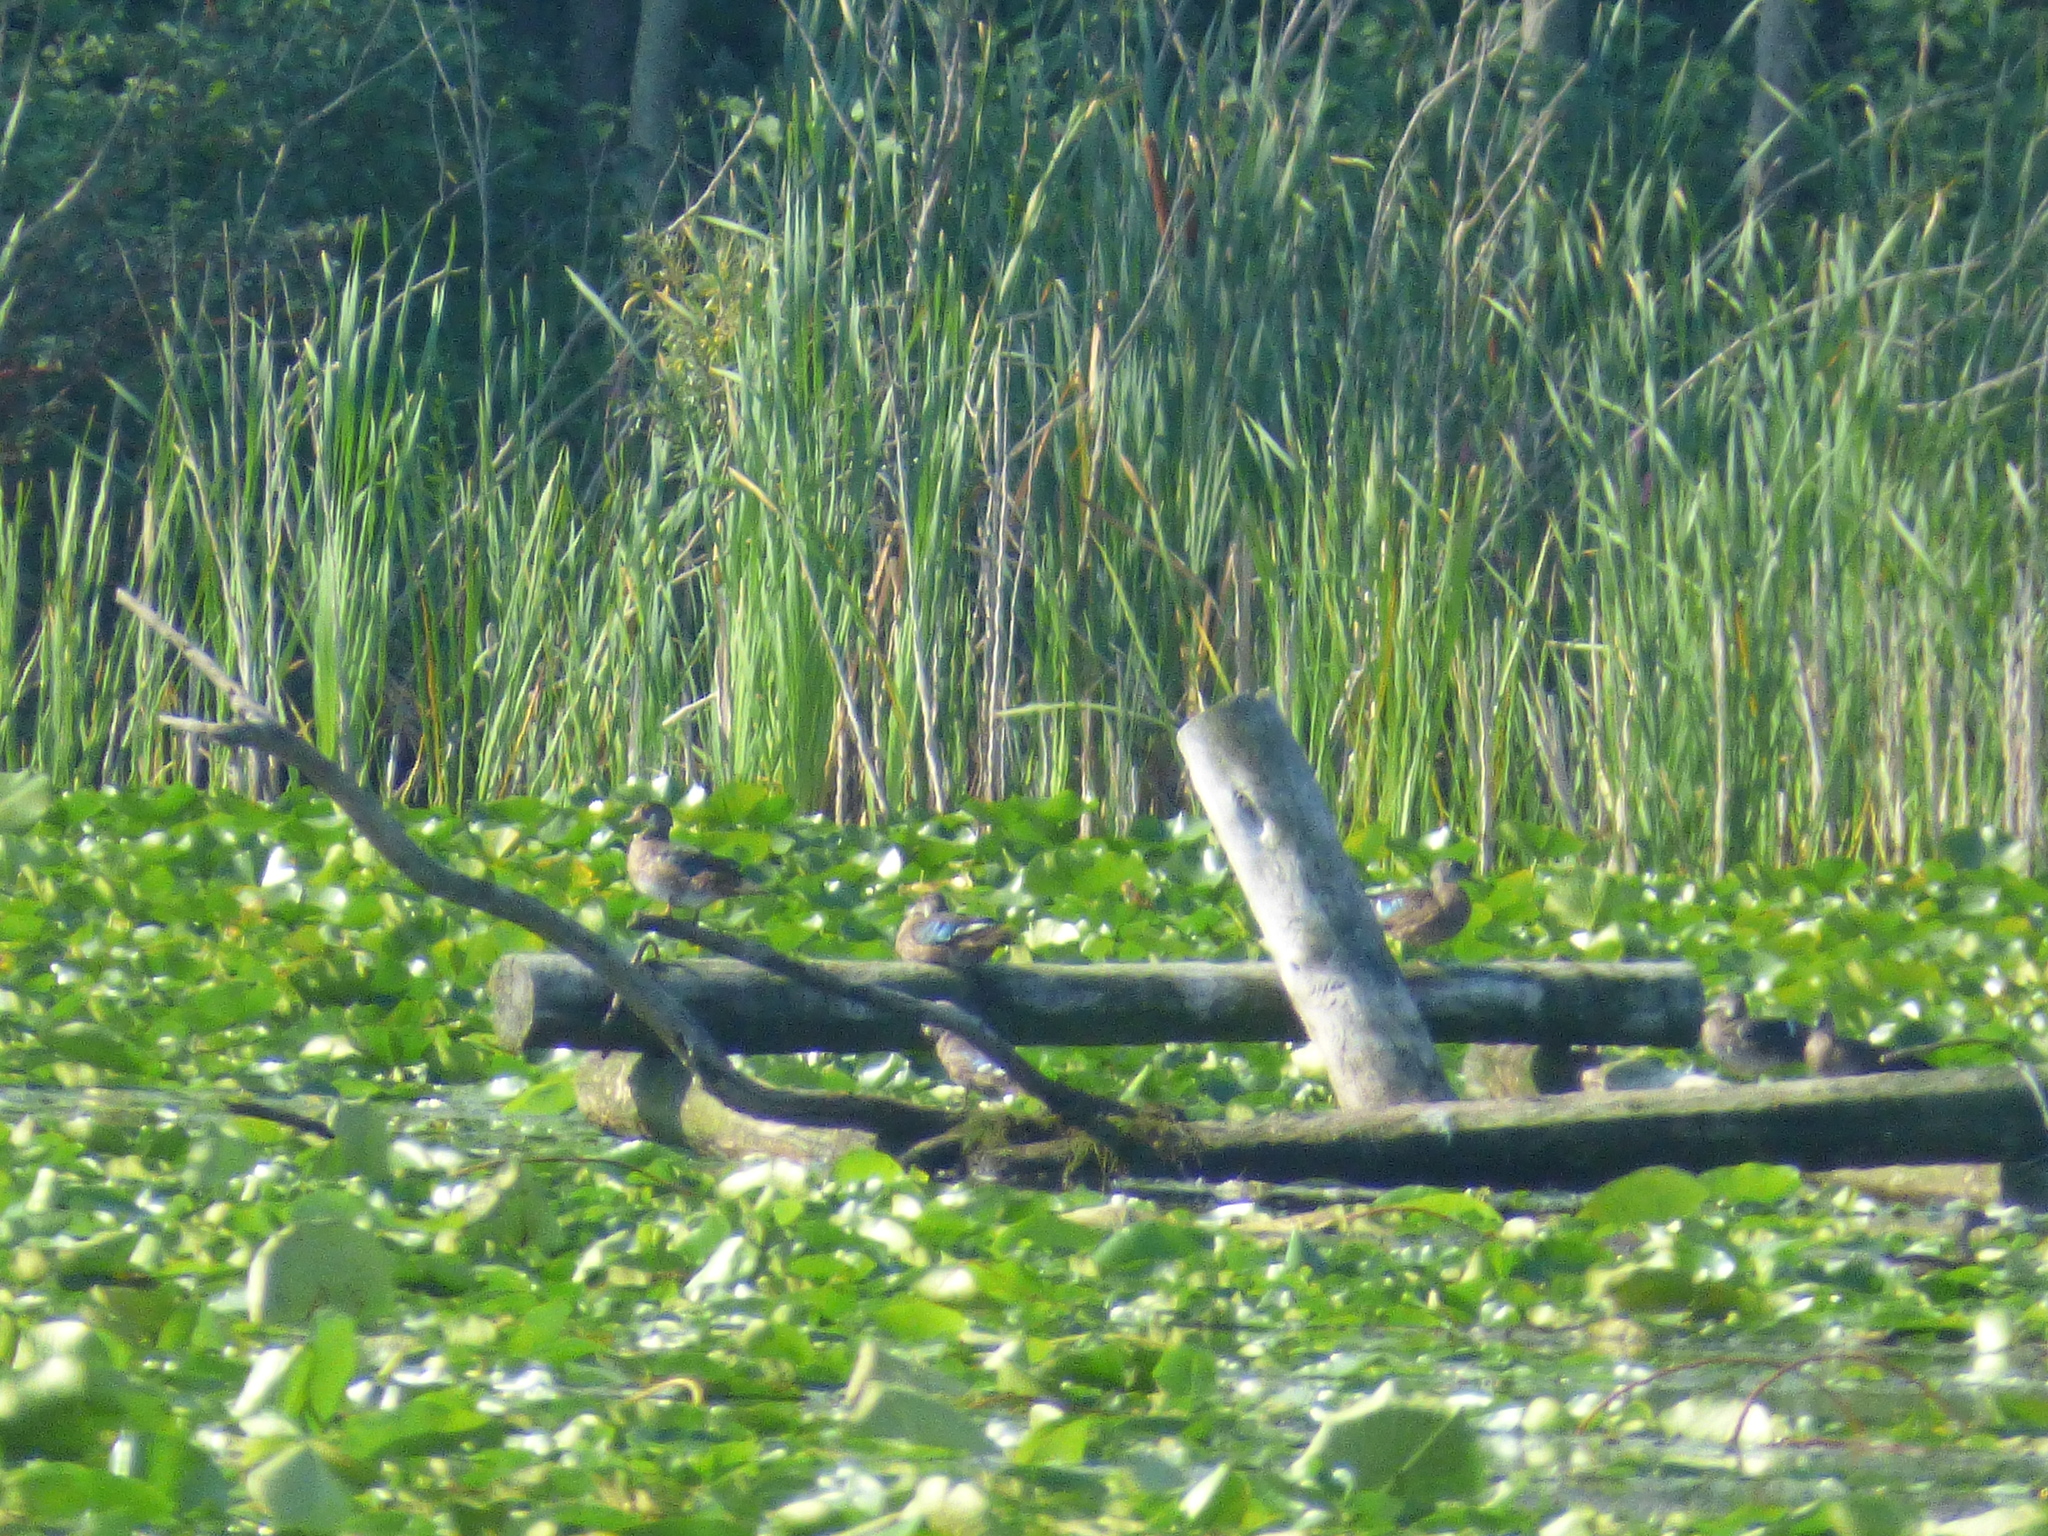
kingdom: Animalia
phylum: Chordata
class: Aves
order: Anseriformes
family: Anatidae
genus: Aix
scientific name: Aix sponsa
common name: Wood duck
